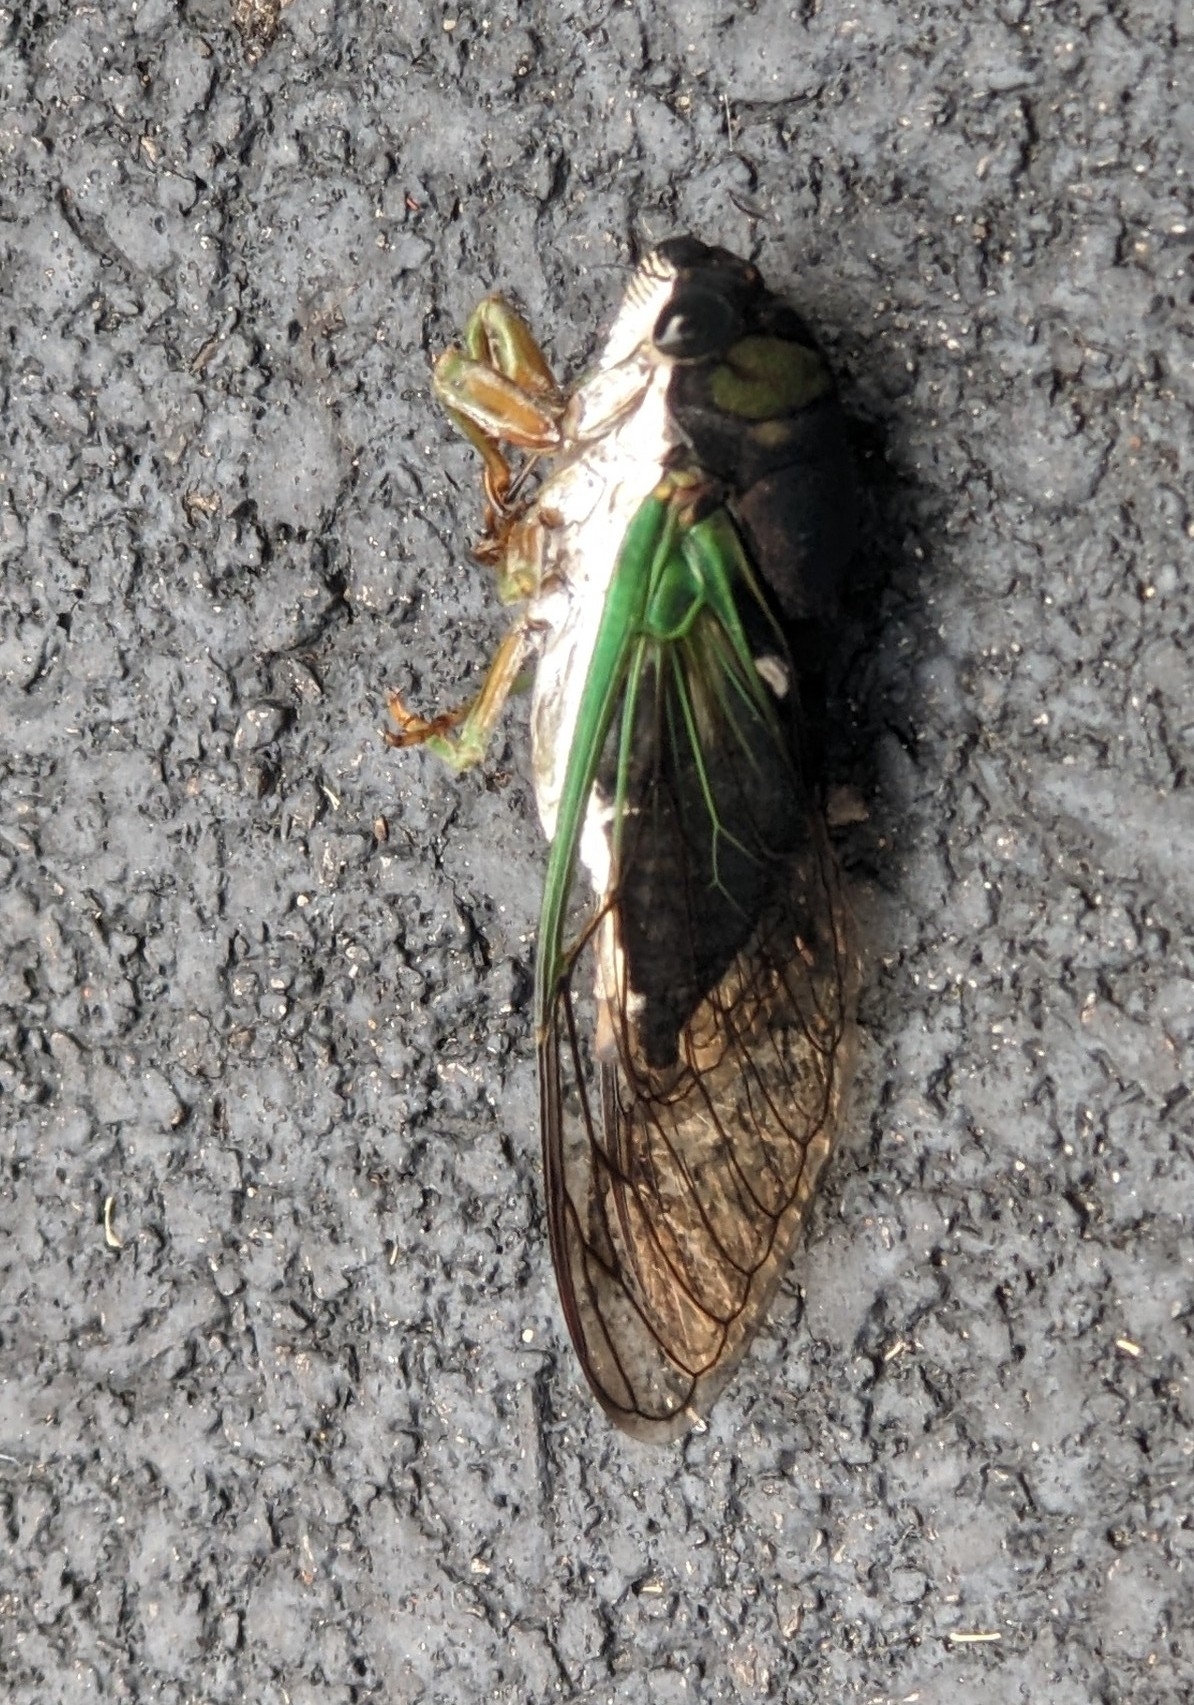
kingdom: Animalia
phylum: Arthropoda
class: Insecta
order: Hemiptera
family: Cicadidae
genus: Neotibicen
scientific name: Neotibicen tibicen
